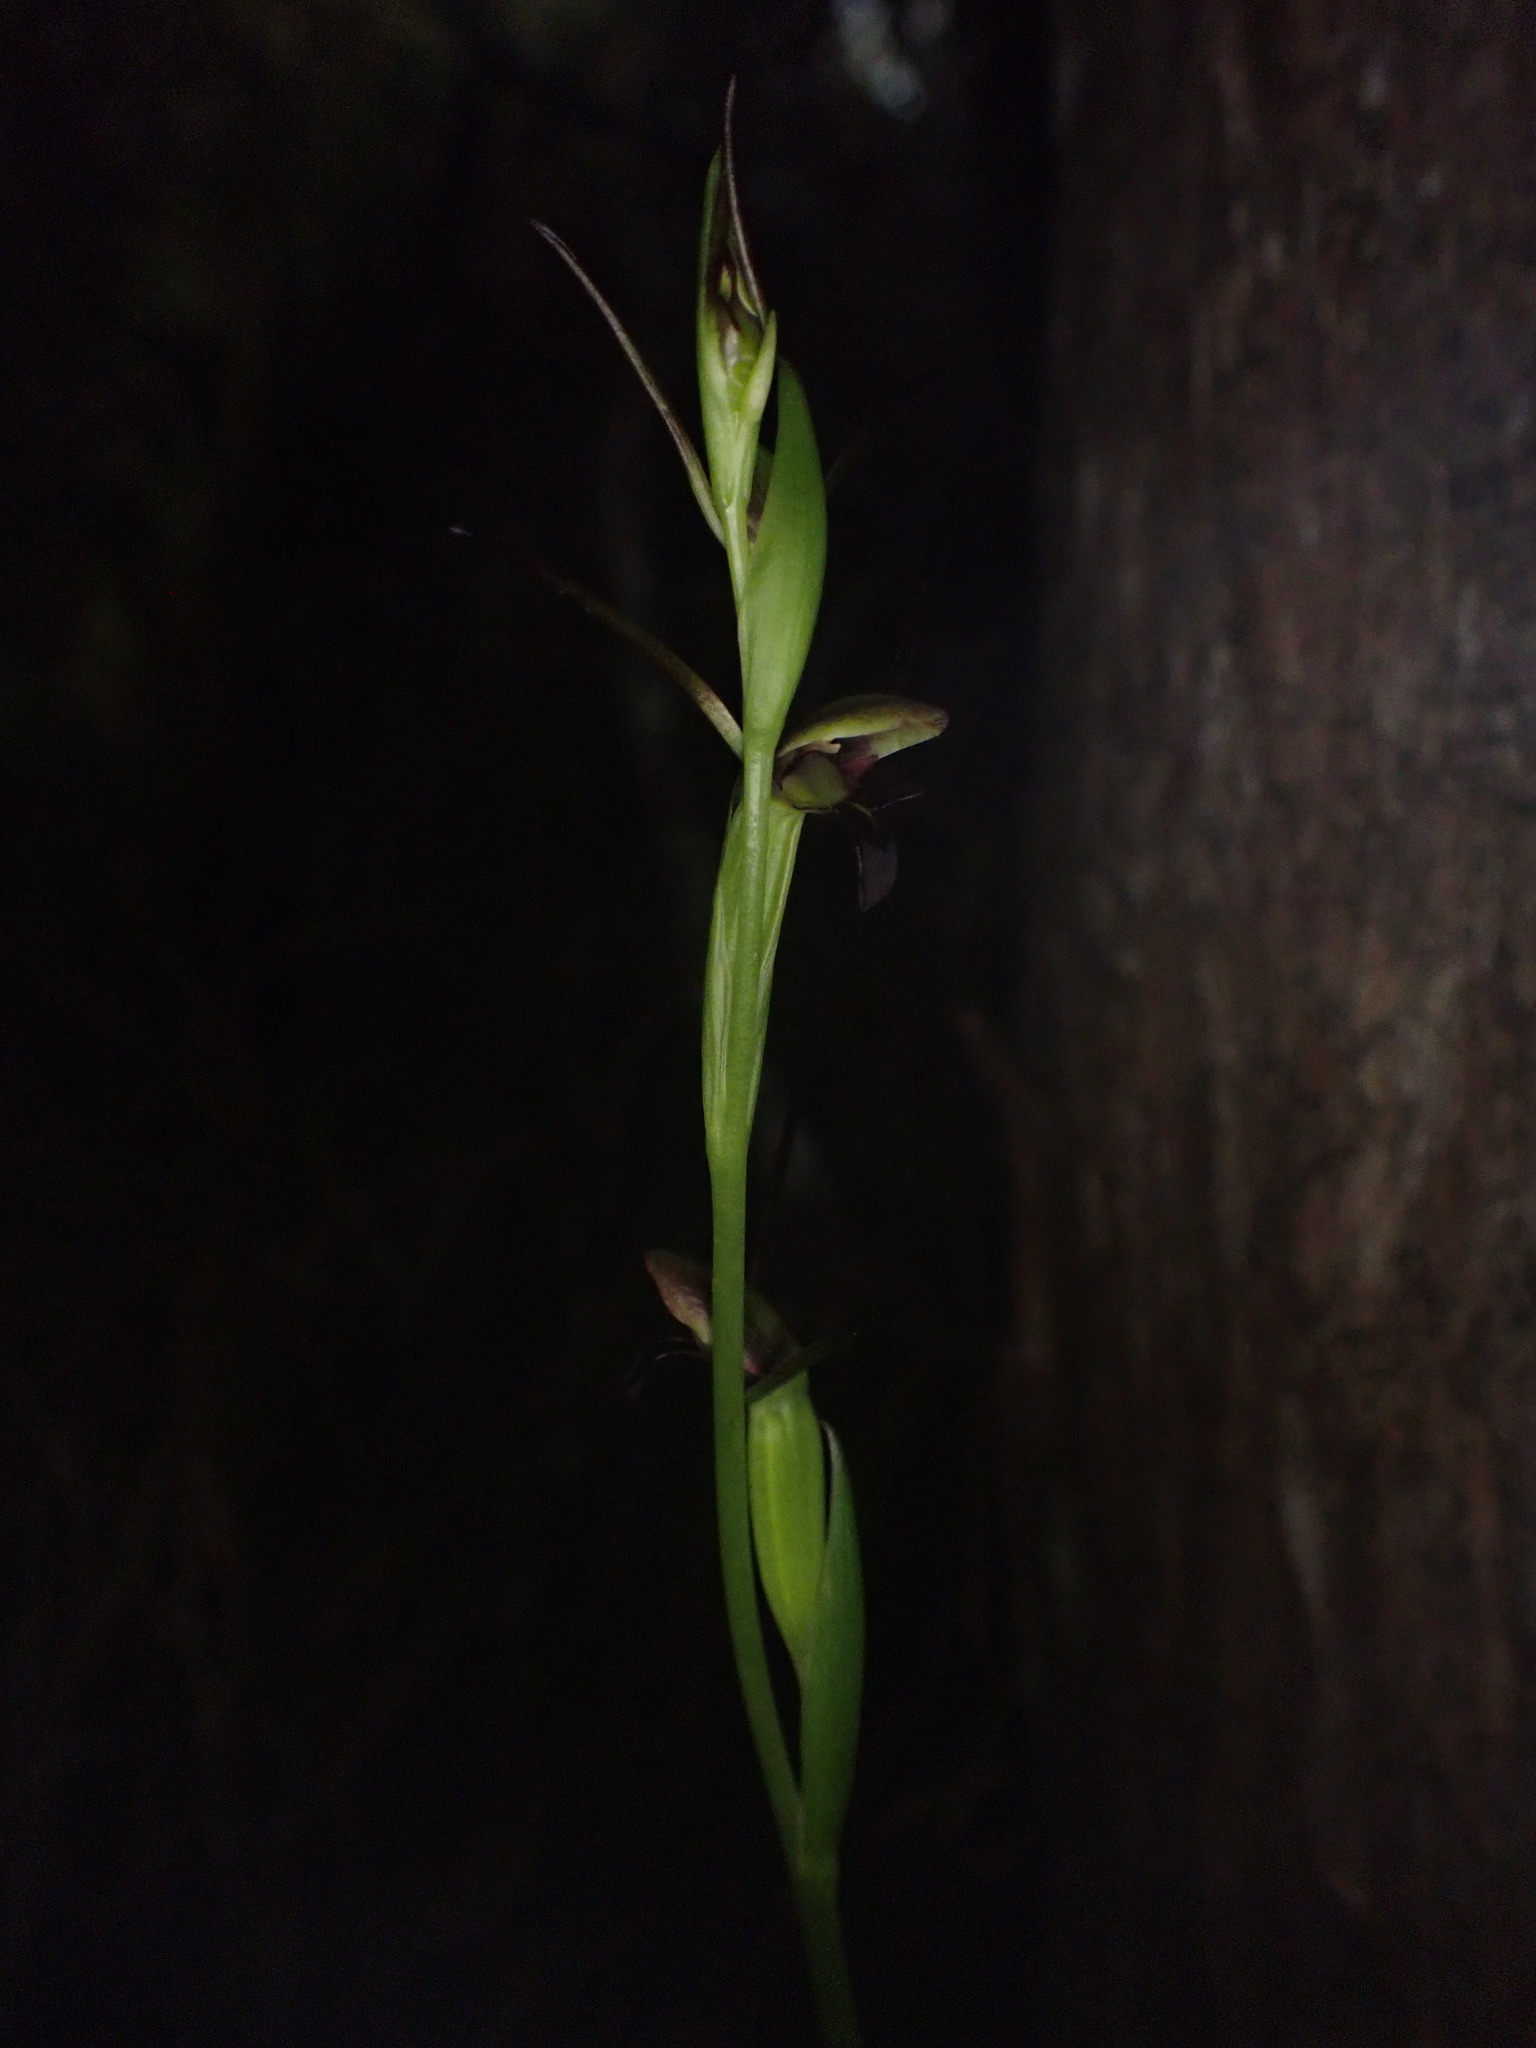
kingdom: Plantae
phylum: Tracheophyta
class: Liliopsida
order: Asparagales
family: Orchidaceae
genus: Orthoceras
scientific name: Orthoceras novae-zeelandiae
